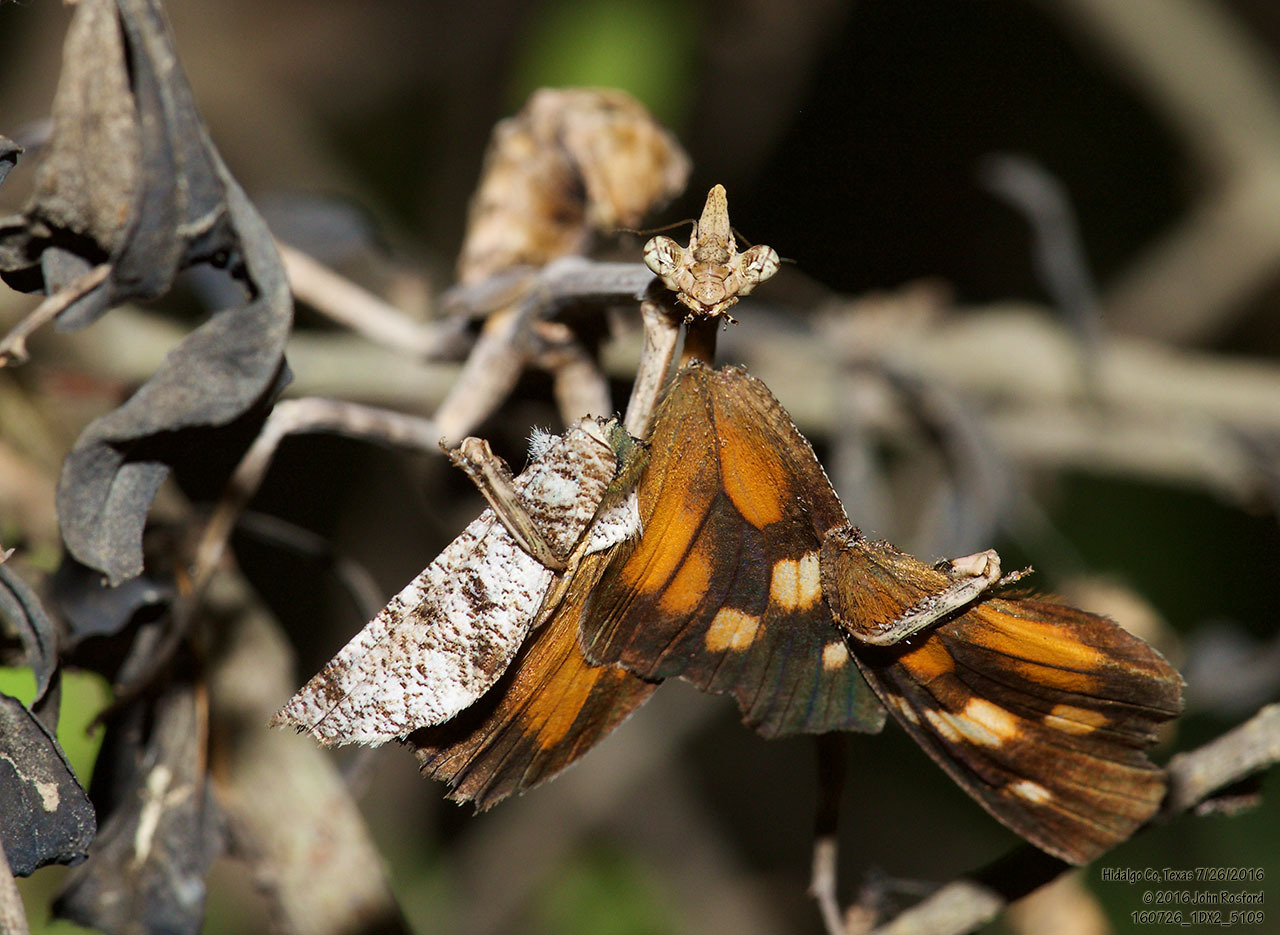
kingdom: Animalia
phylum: Arthropoda
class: Insecta
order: Mantodea
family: Mantidae
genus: Pseudovates
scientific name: Pseudovates chlorophaea
